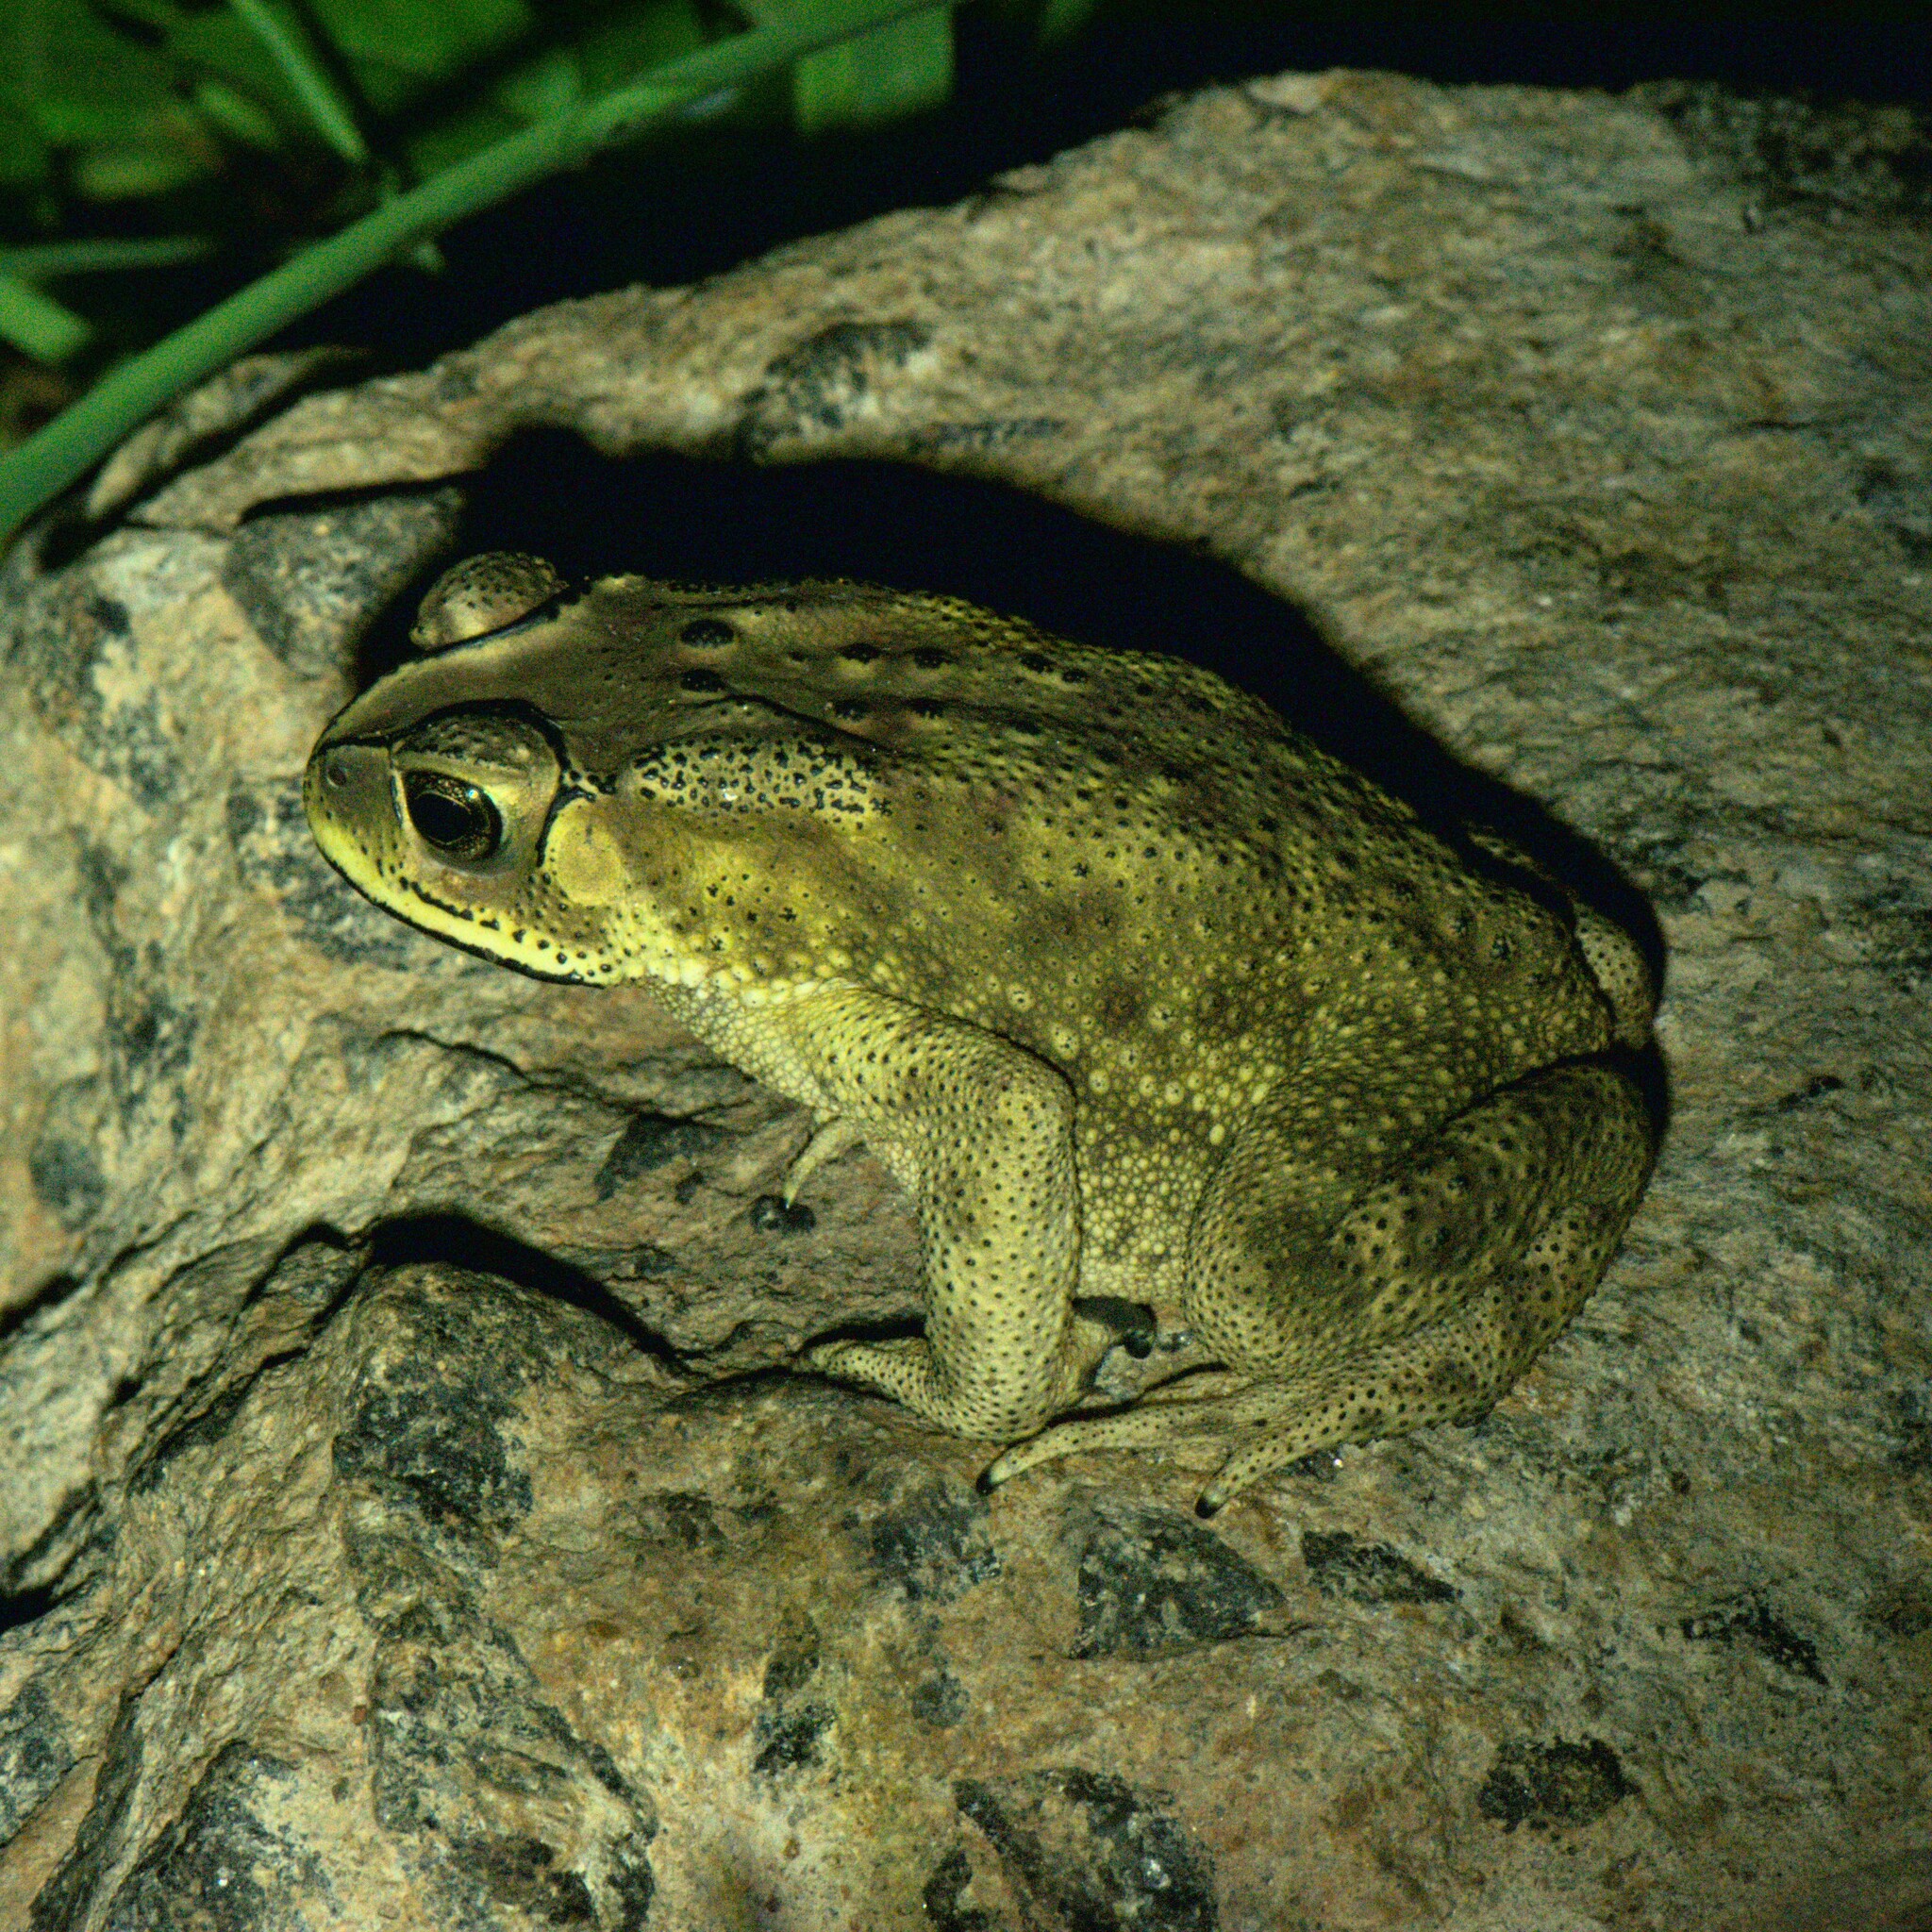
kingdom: Animalia
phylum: Chordata
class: Amphibia
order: Anura
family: Bufonidae
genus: Duttaphrynus
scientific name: Duttaphrynus melanostictus
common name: Common sunda toad
